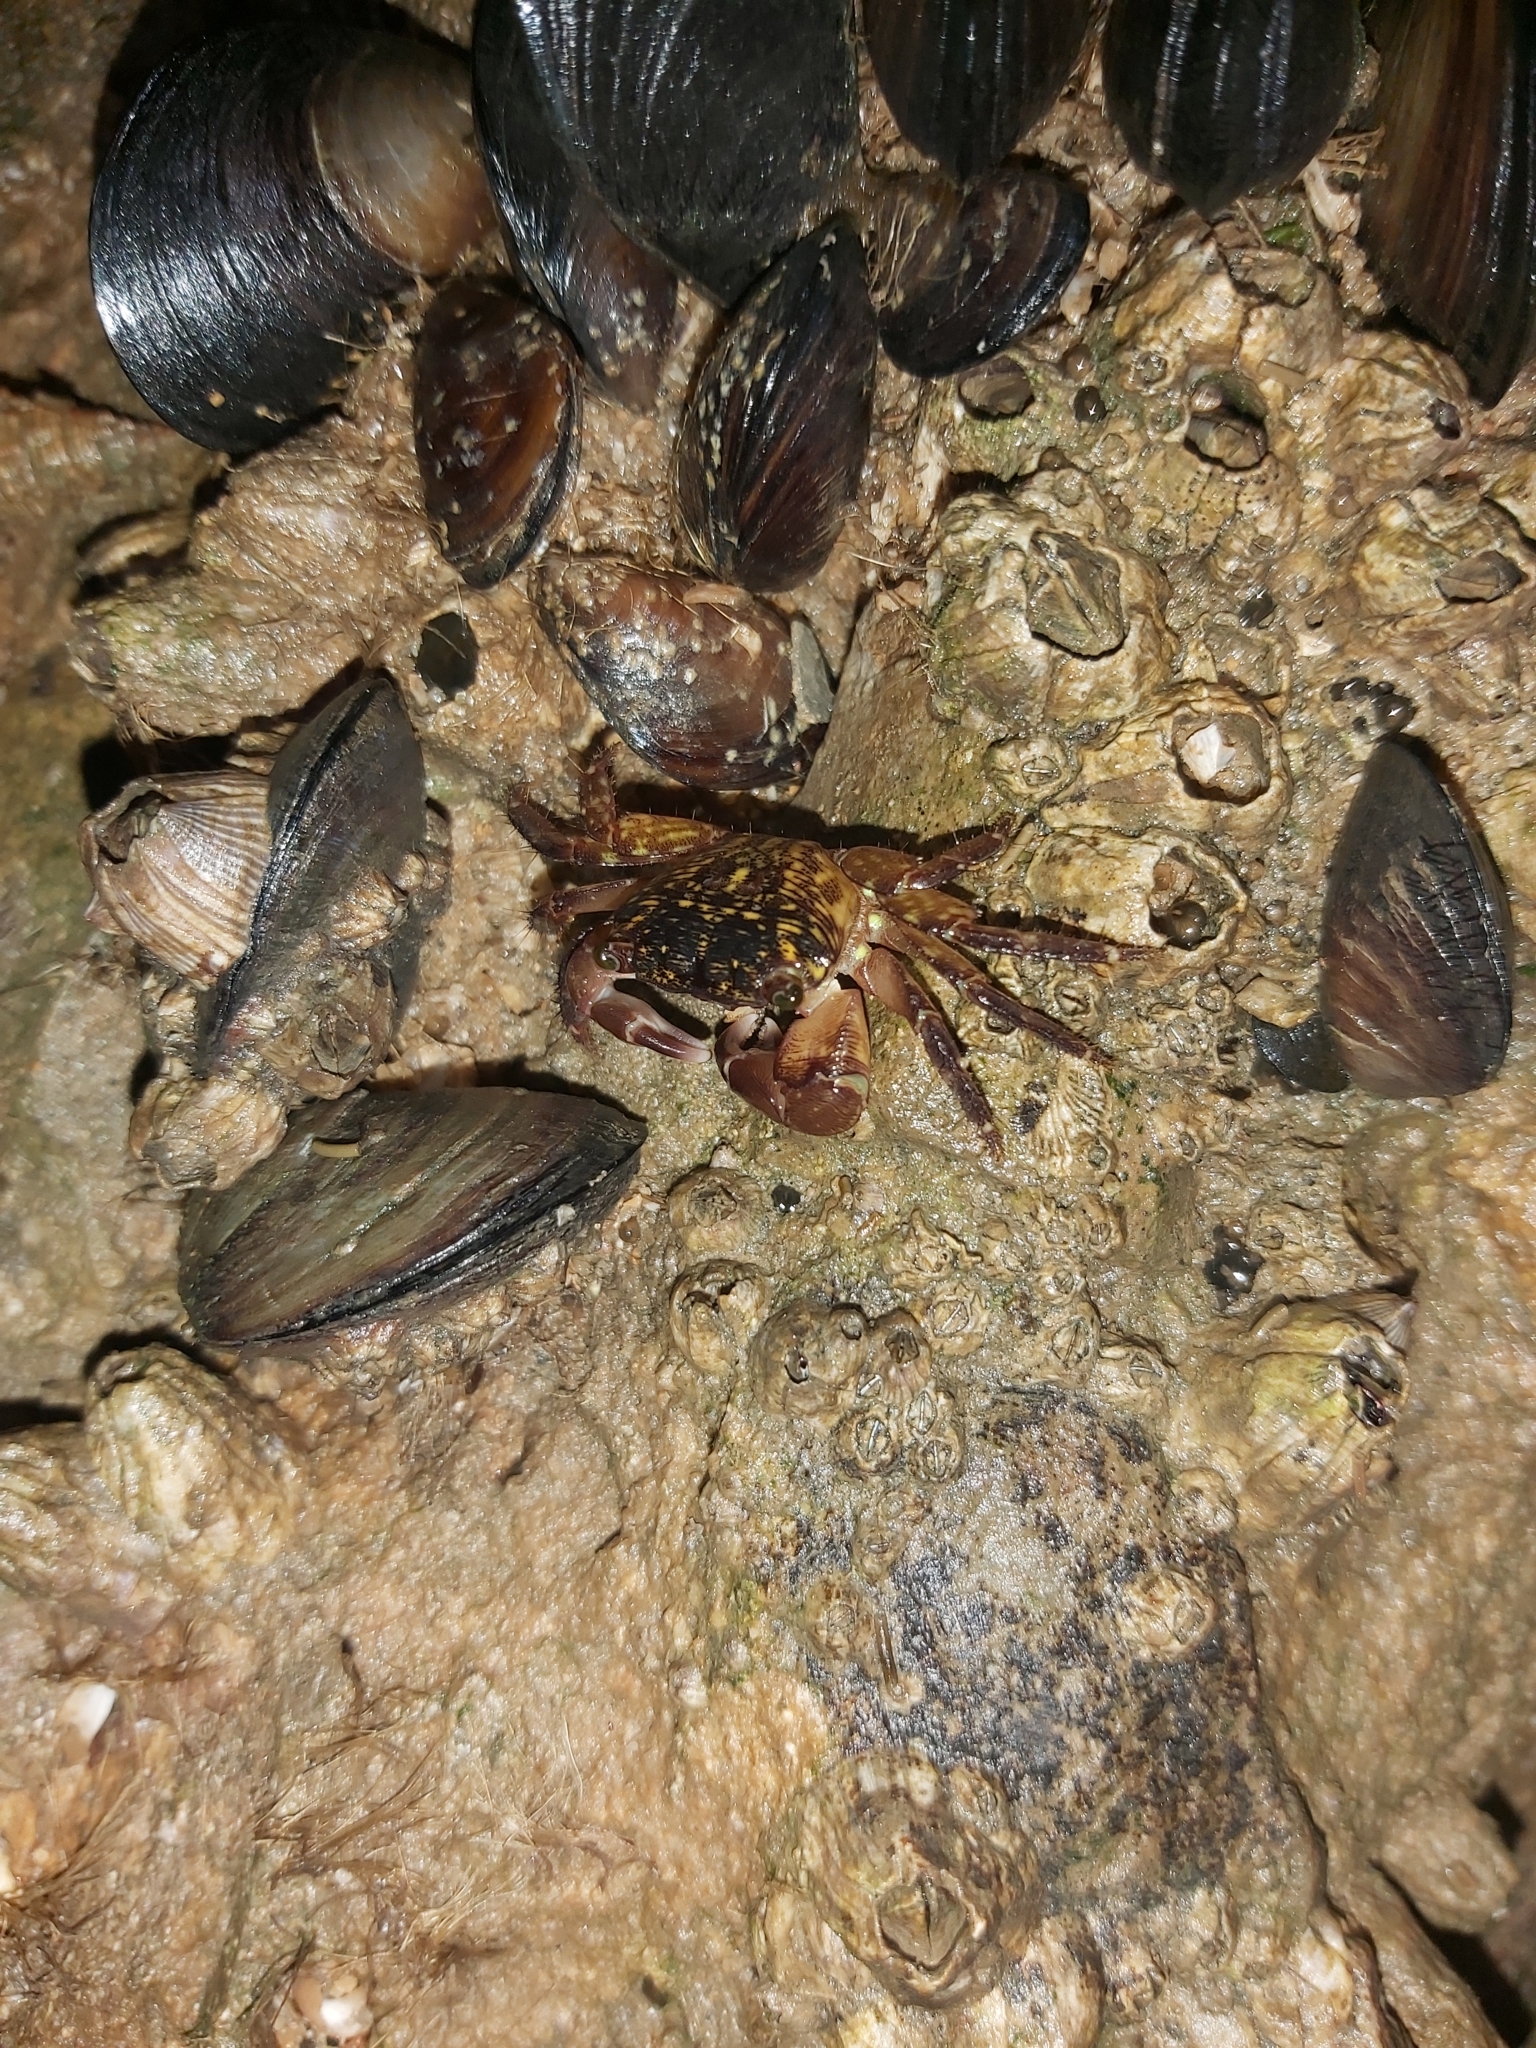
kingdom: Animalia
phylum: Arthropoda
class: Malacostraca
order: Decapoda
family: Grapsidae
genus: Pachygrapsus
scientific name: Pachygrapsus transversus
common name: Mottled shore crab
